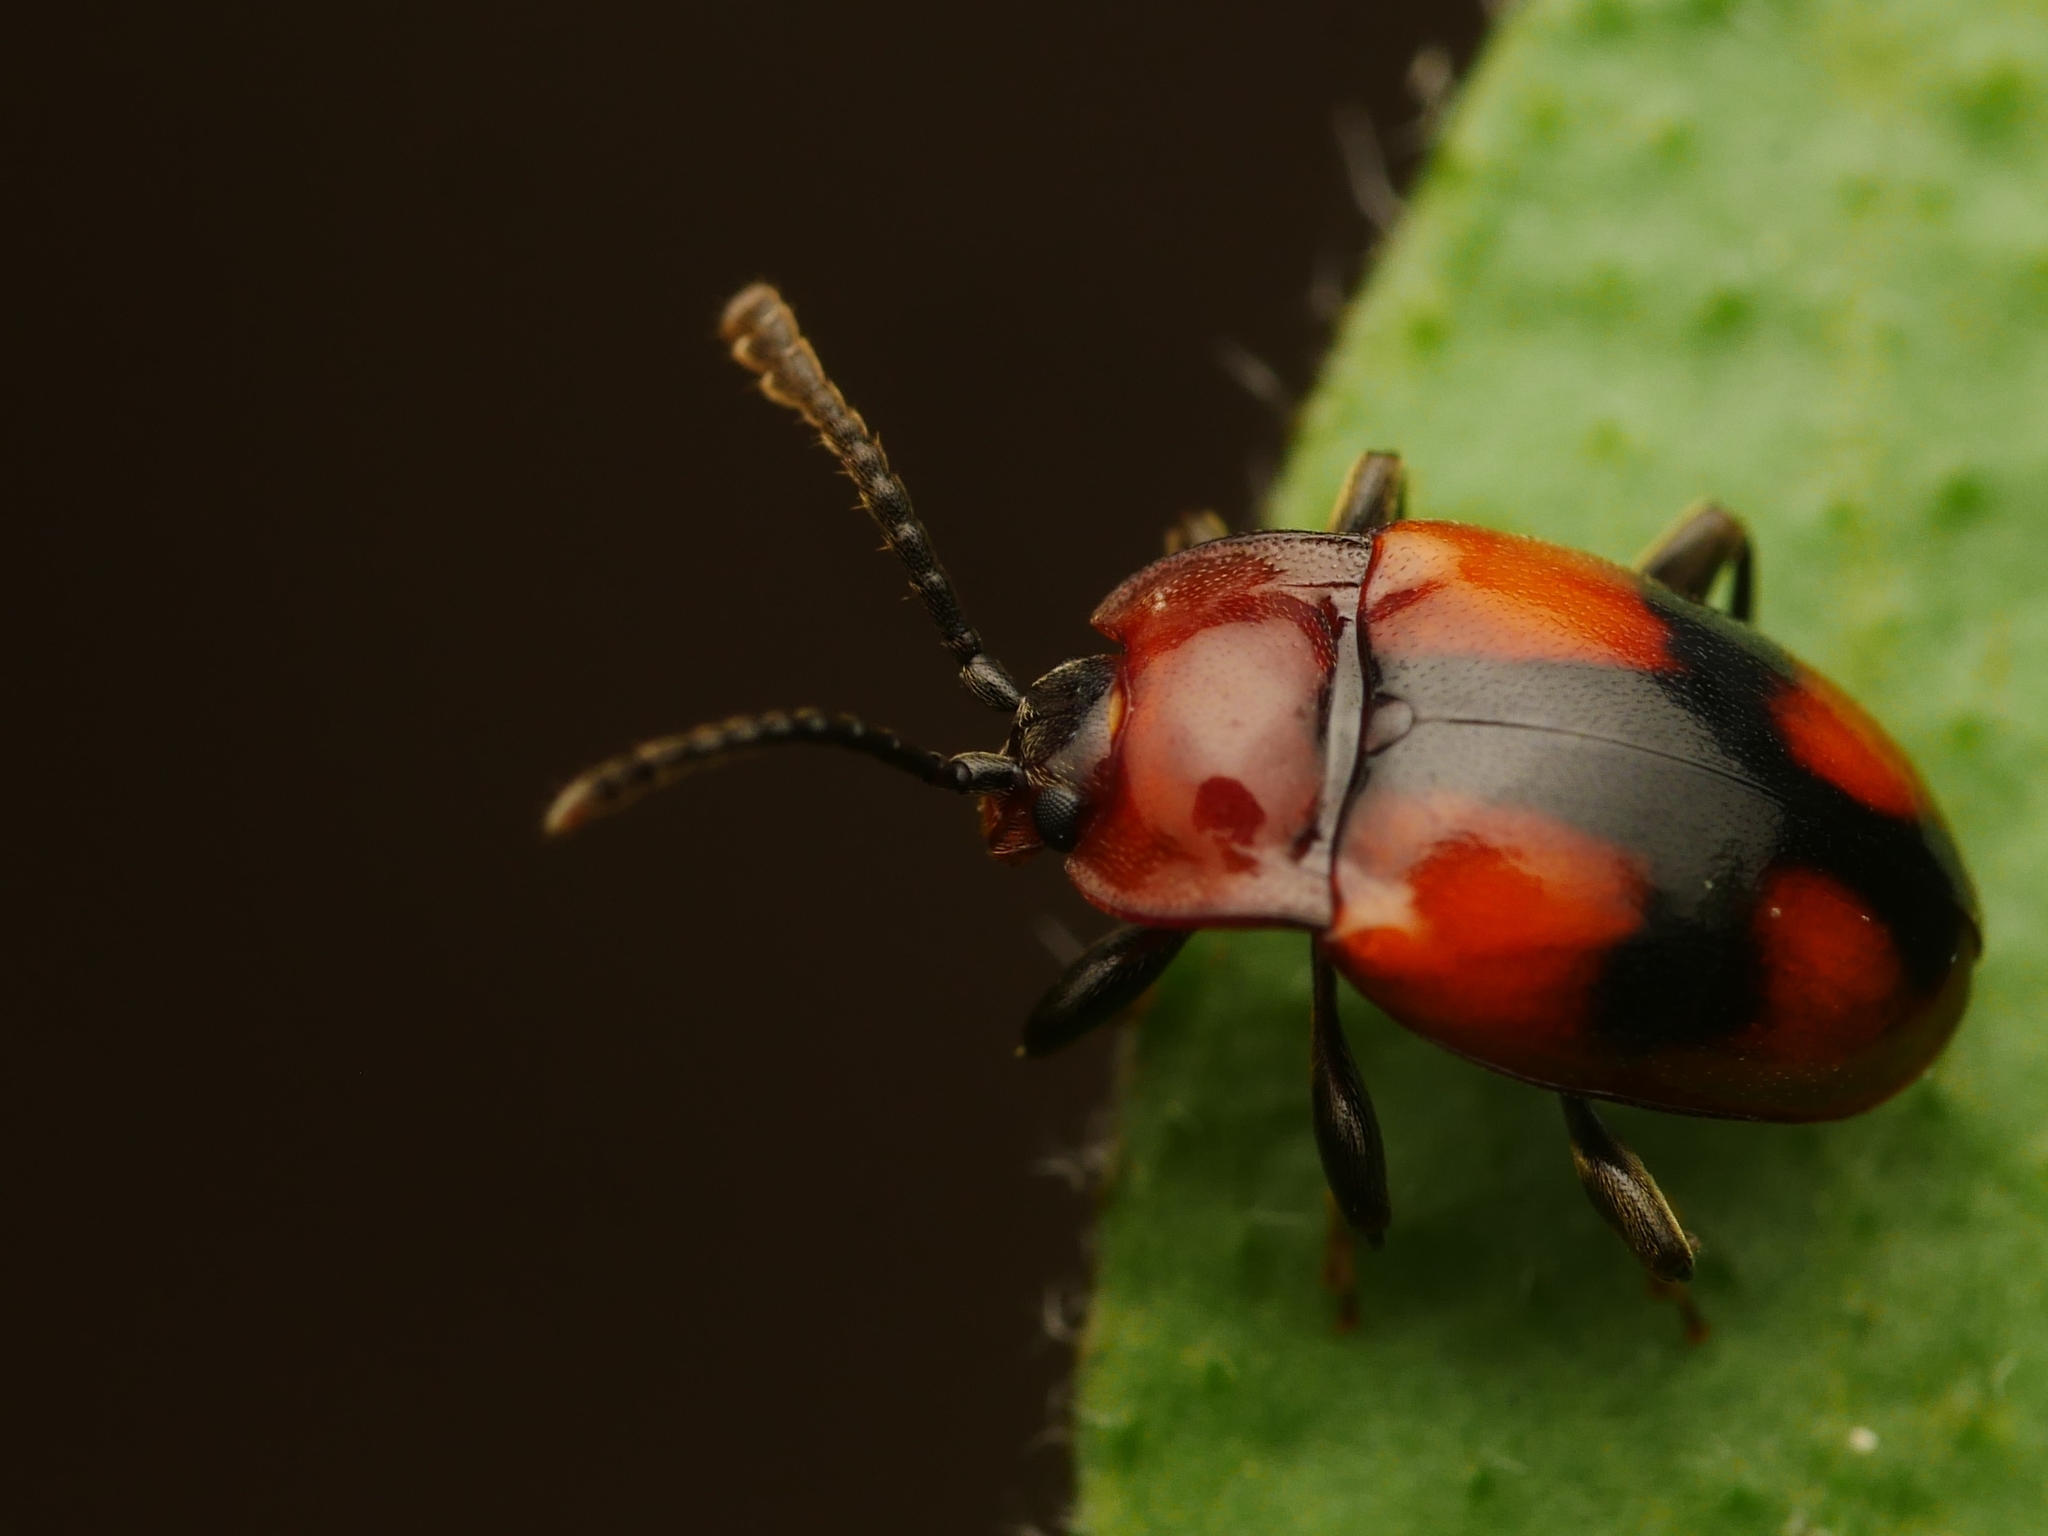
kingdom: Animalia
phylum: Arthropoda
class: Insecta
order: Coleoptera
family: Endomychidae
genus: Mycetina
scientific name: Mycetina cruciata
